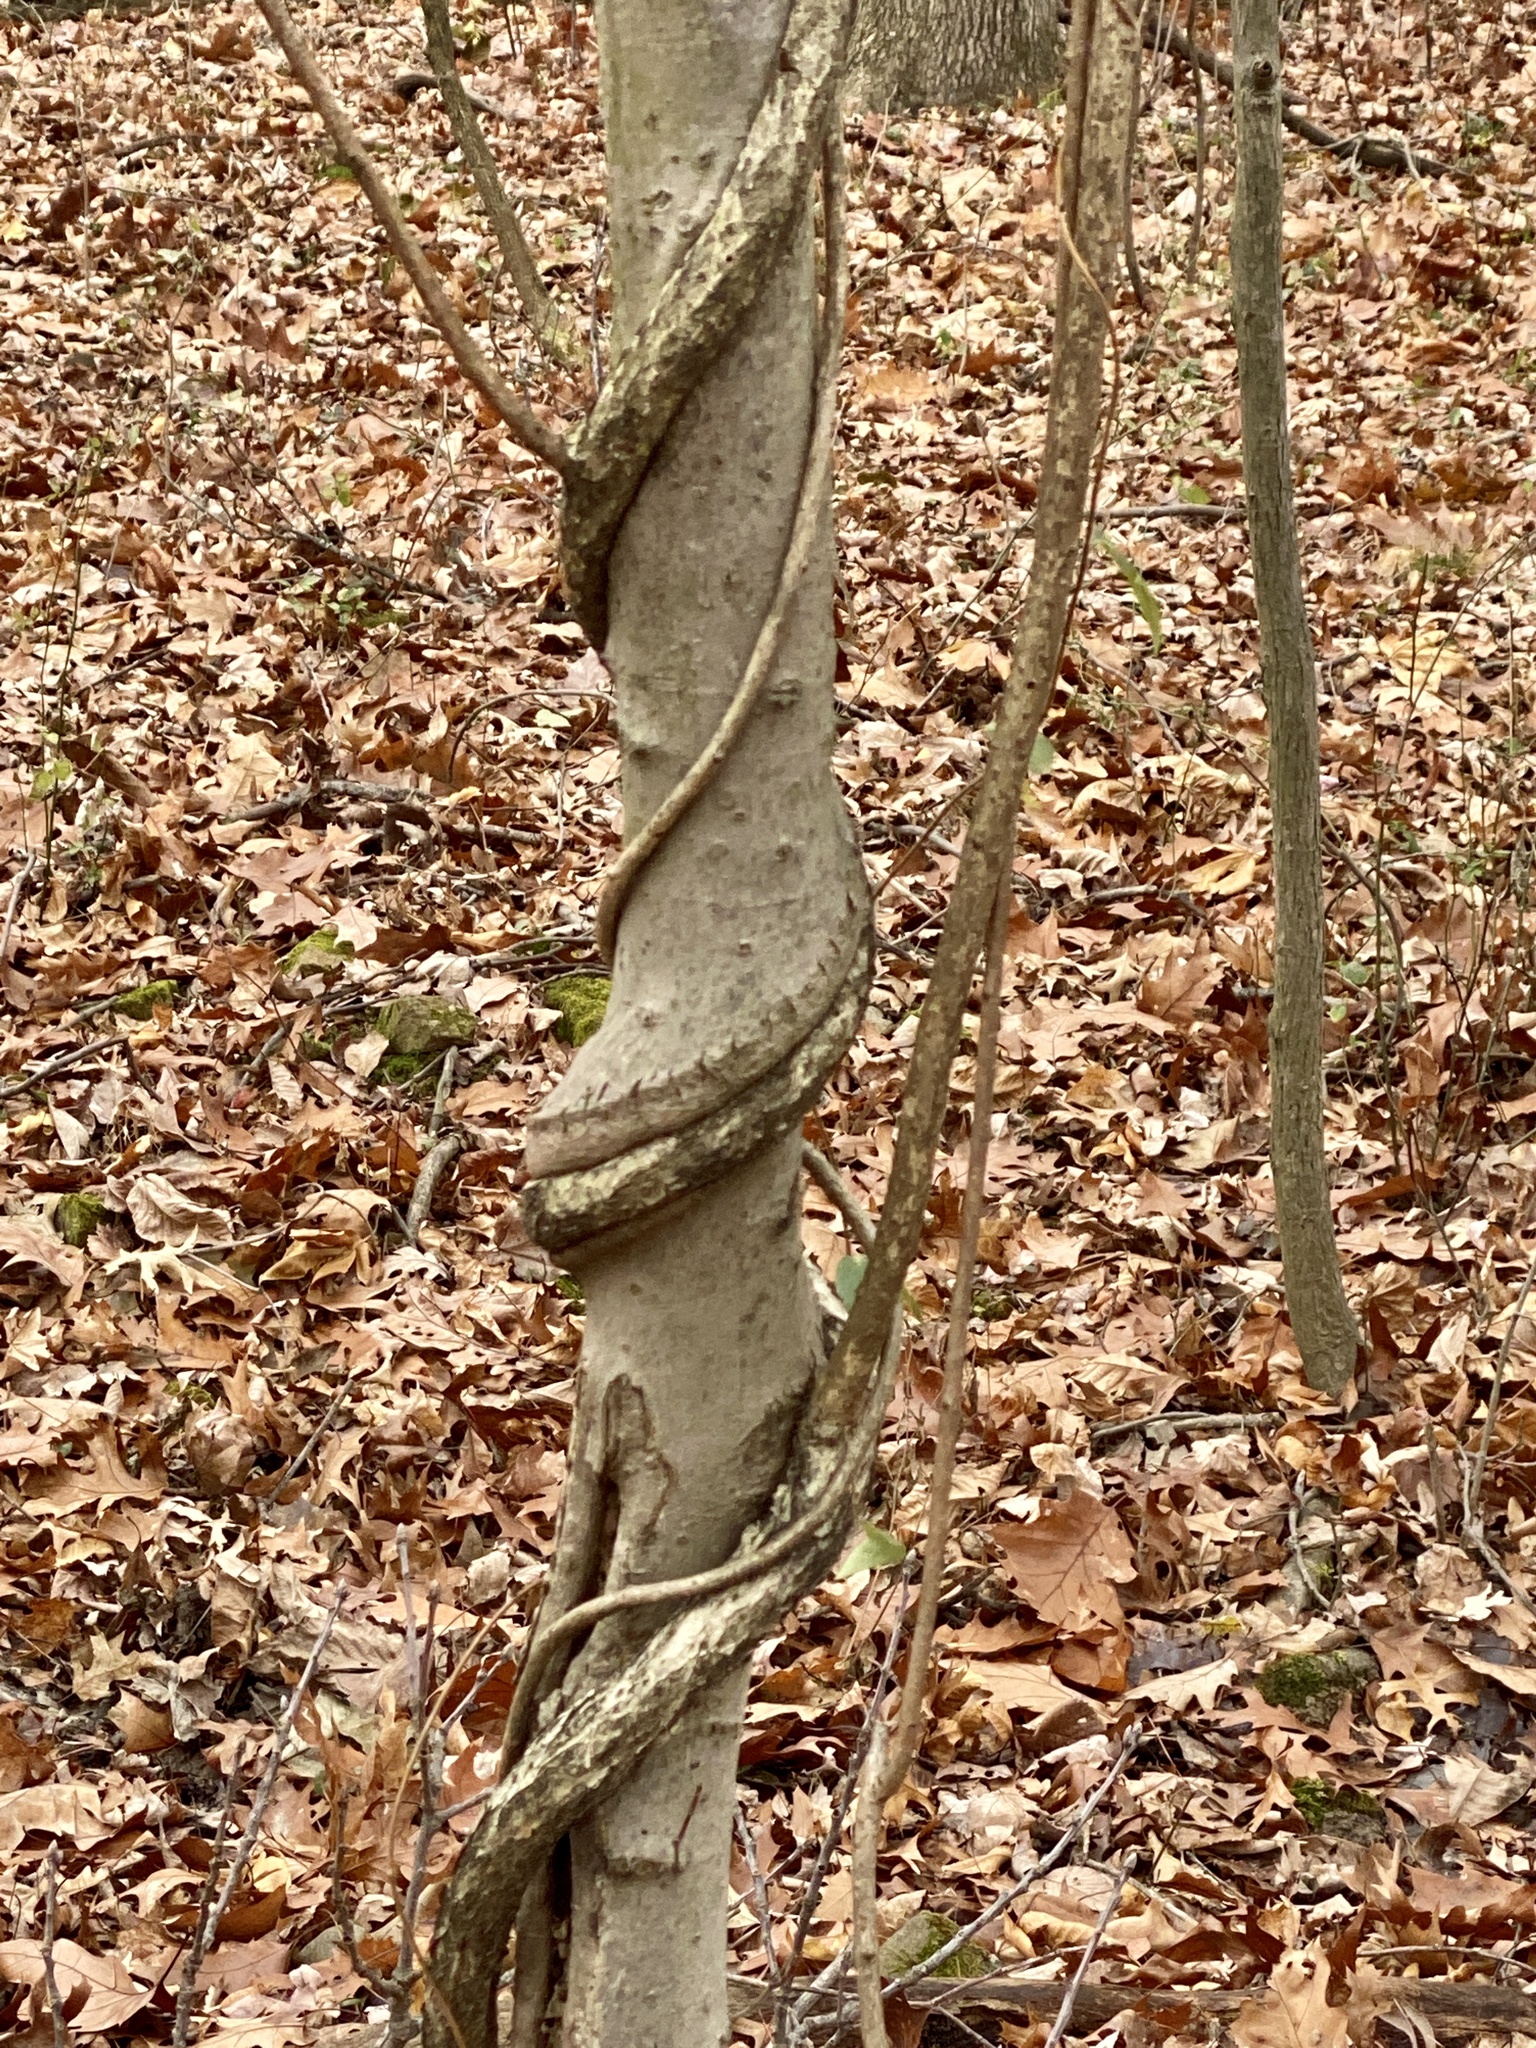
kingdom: Plantae
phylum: Tracheophyta
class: Magnoliopsida
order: Celastrales
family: Celastraceae
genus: Celastrus
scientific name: Celastrus orbiculatus
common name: Oriental bittersweet
